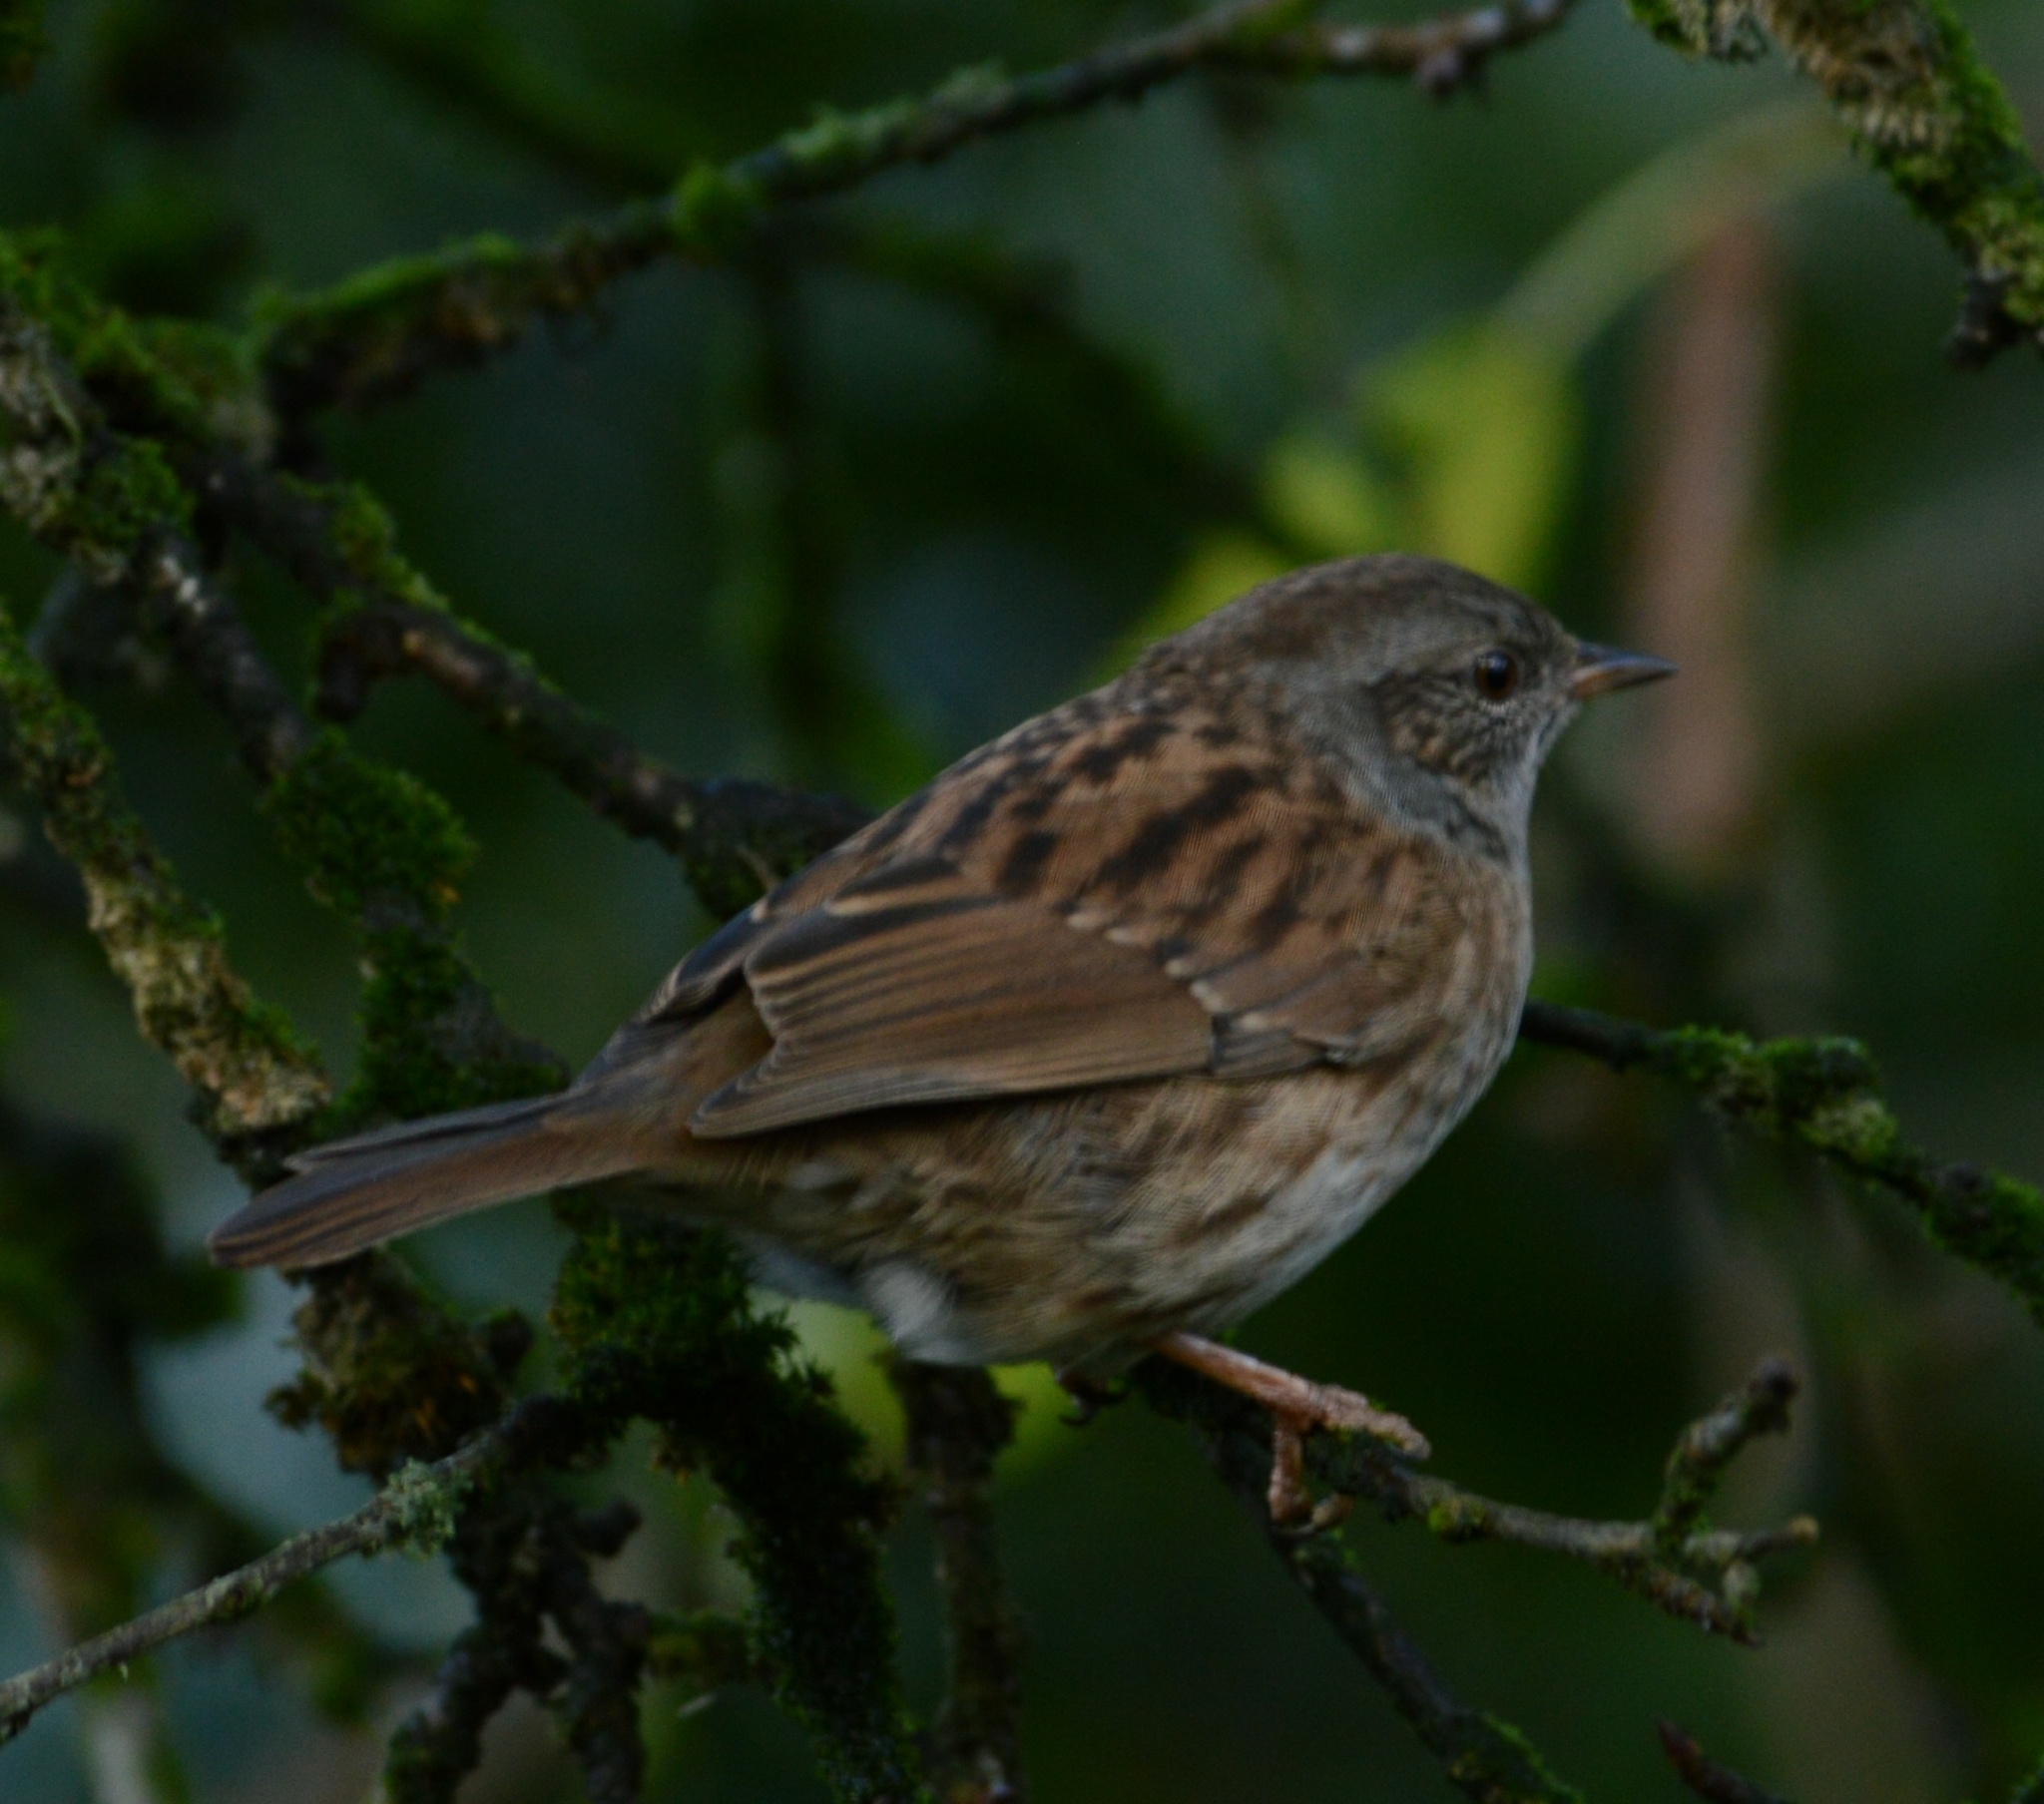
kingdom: Animalia
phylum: Chordata
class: Aves
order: Passeriformes
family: Prunellidae
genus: Prunella
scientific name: Prunella modularis
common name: Dunnock
